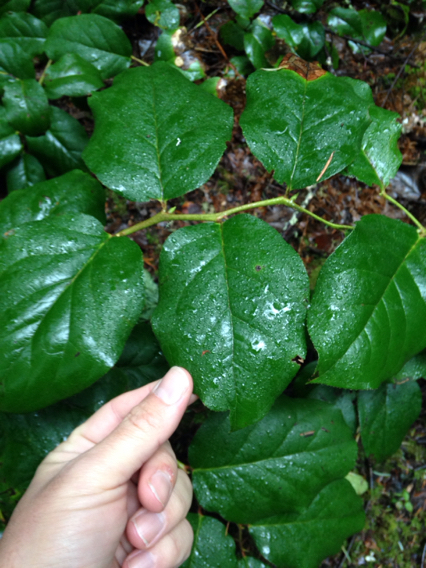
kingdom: Plantae
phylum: Tracheophyta
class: Magnoliopsida
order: Ericales
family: Ericaceae
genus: Gaultheria
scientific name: Gaultheria shallon
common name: Shallon
